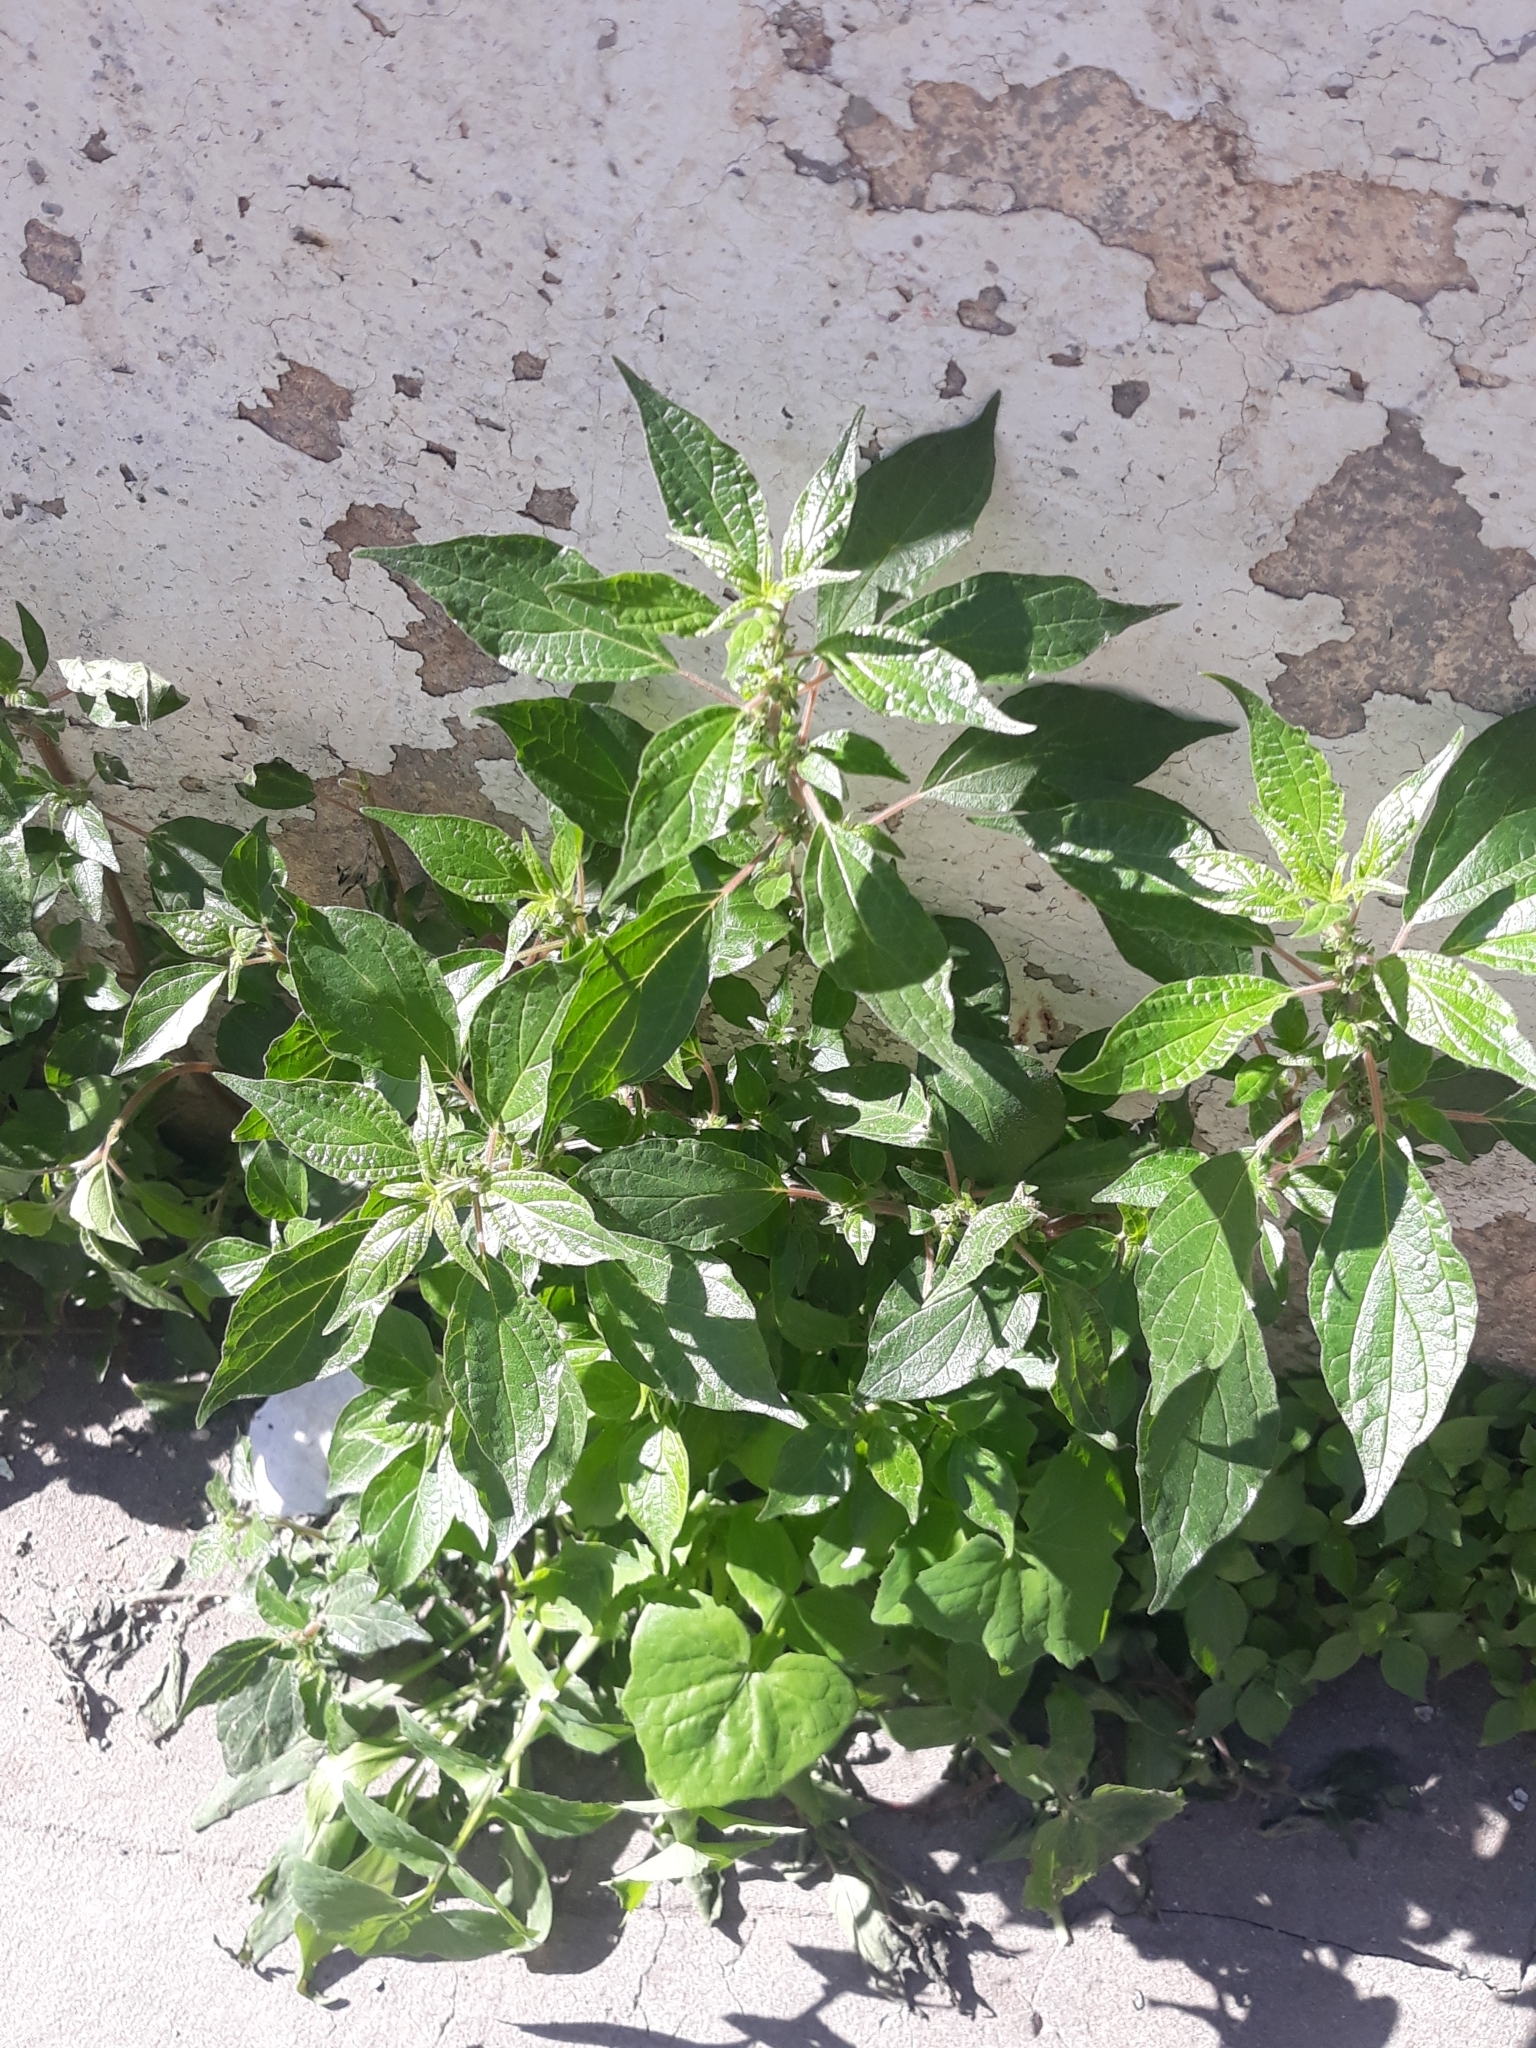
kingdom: Plantae
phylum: Tracheophyta
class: Magnoliopsida
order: Rosales
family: Urticaceae
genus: Parietaria
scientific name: Parietaria judaica
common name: Pellitory-of-the-wall
